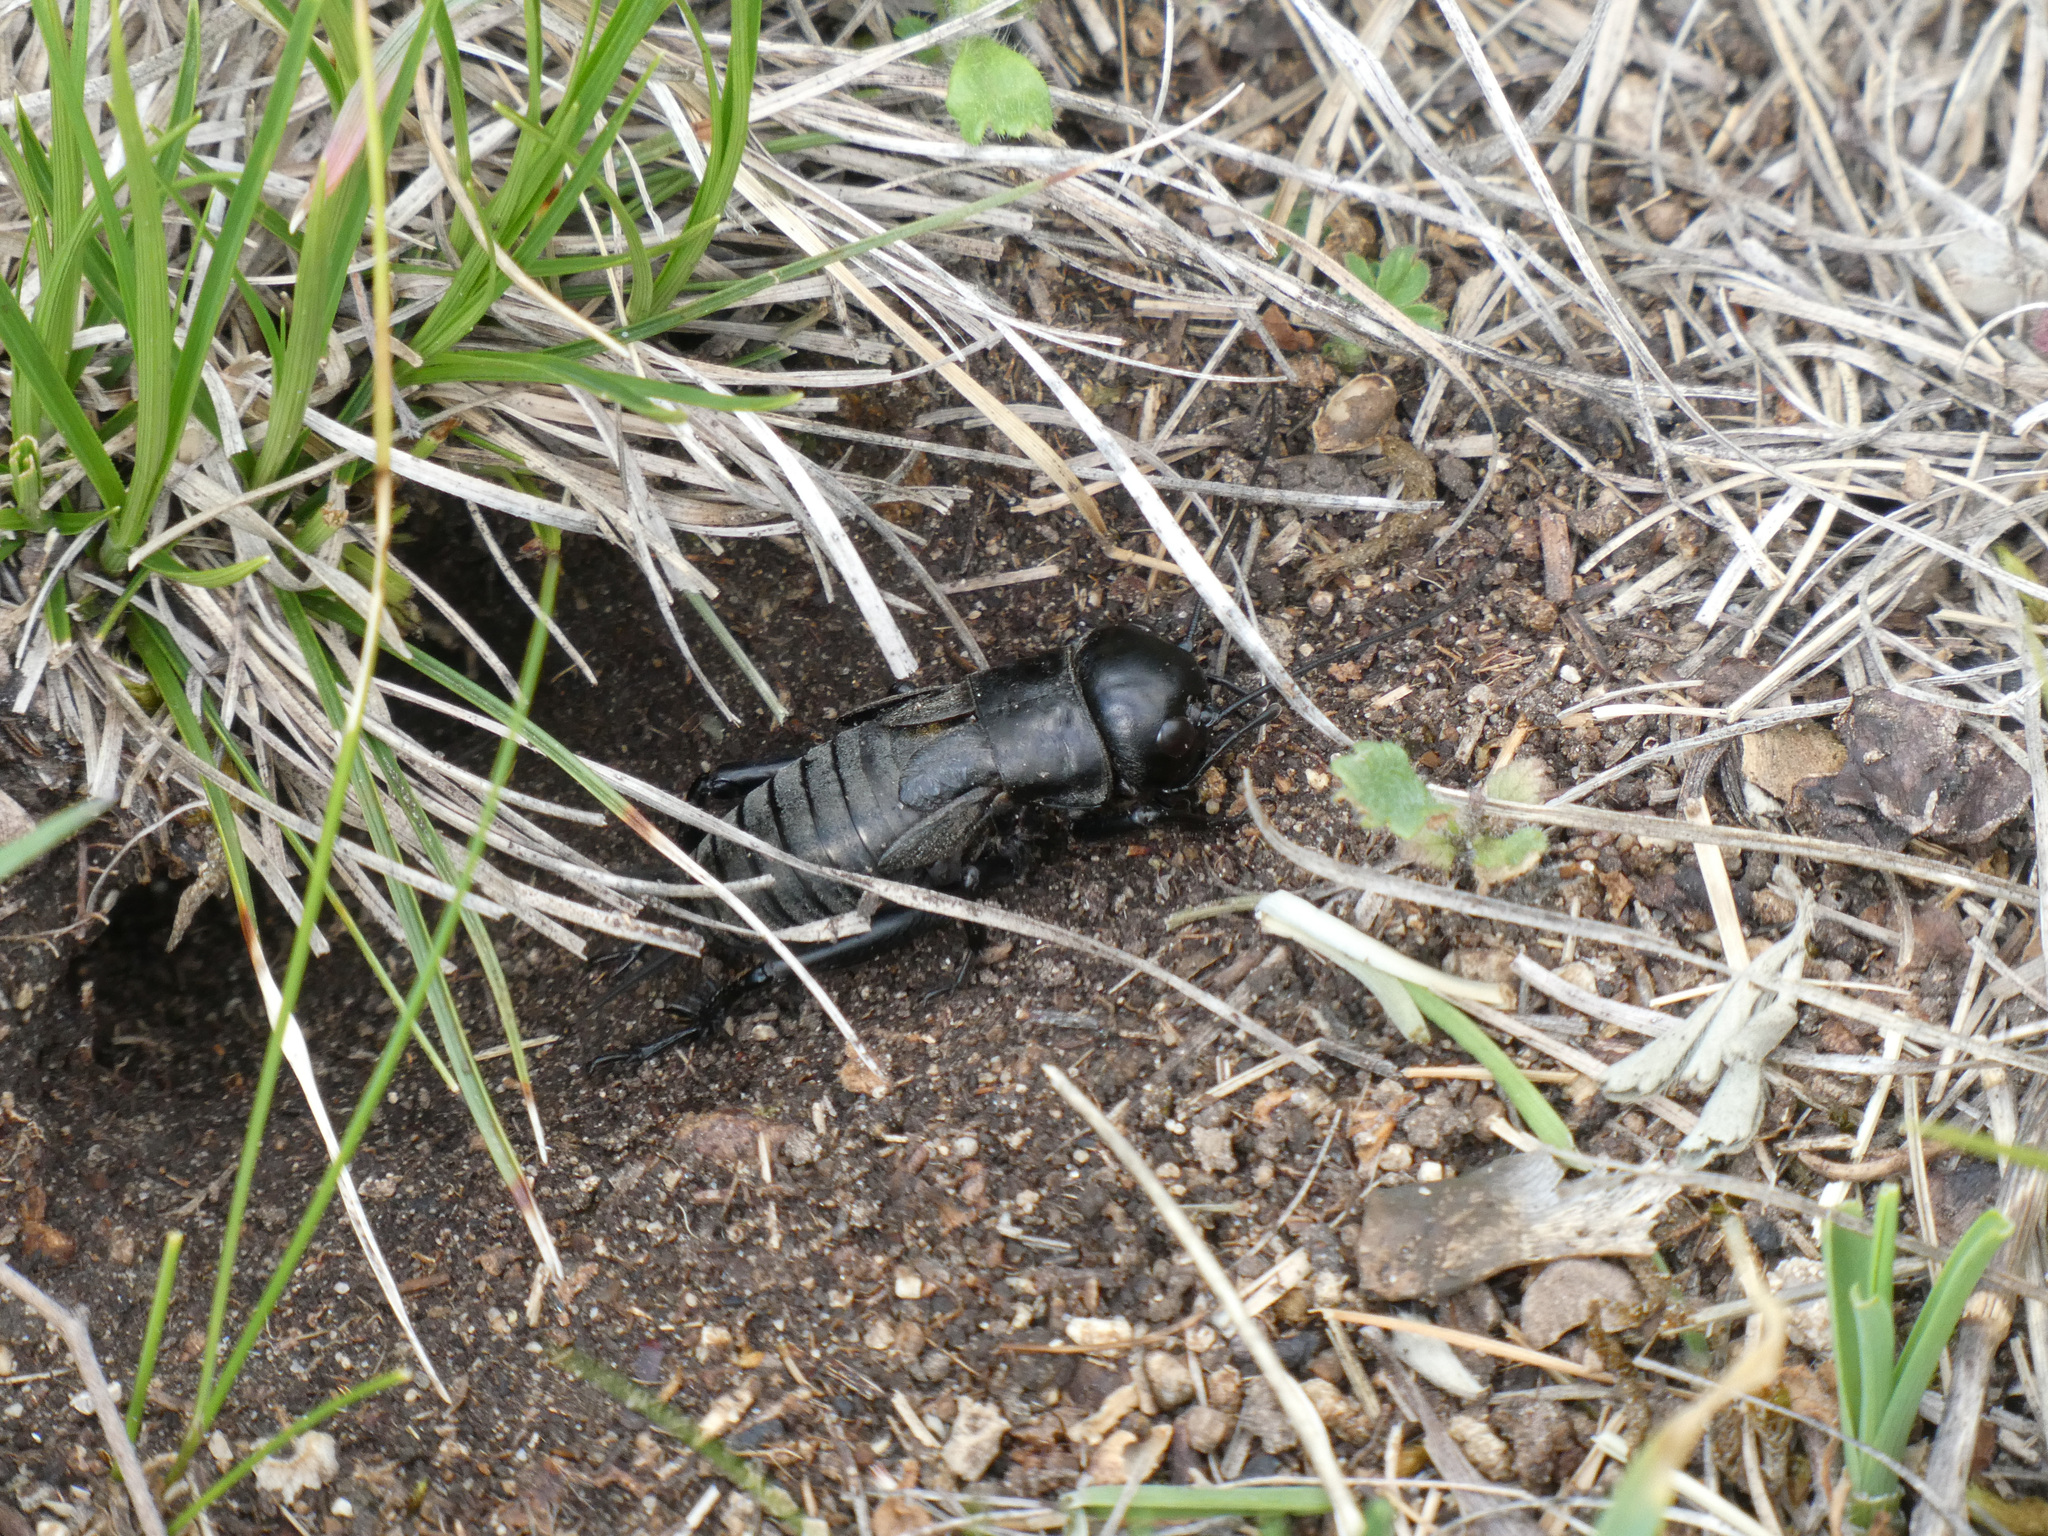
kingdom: Animalia
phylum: Arthropoda
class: Insecta
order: Orthoptera
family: Gryllidae
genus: Gryllus
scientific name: Gryllus campestris
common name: Field cricket
